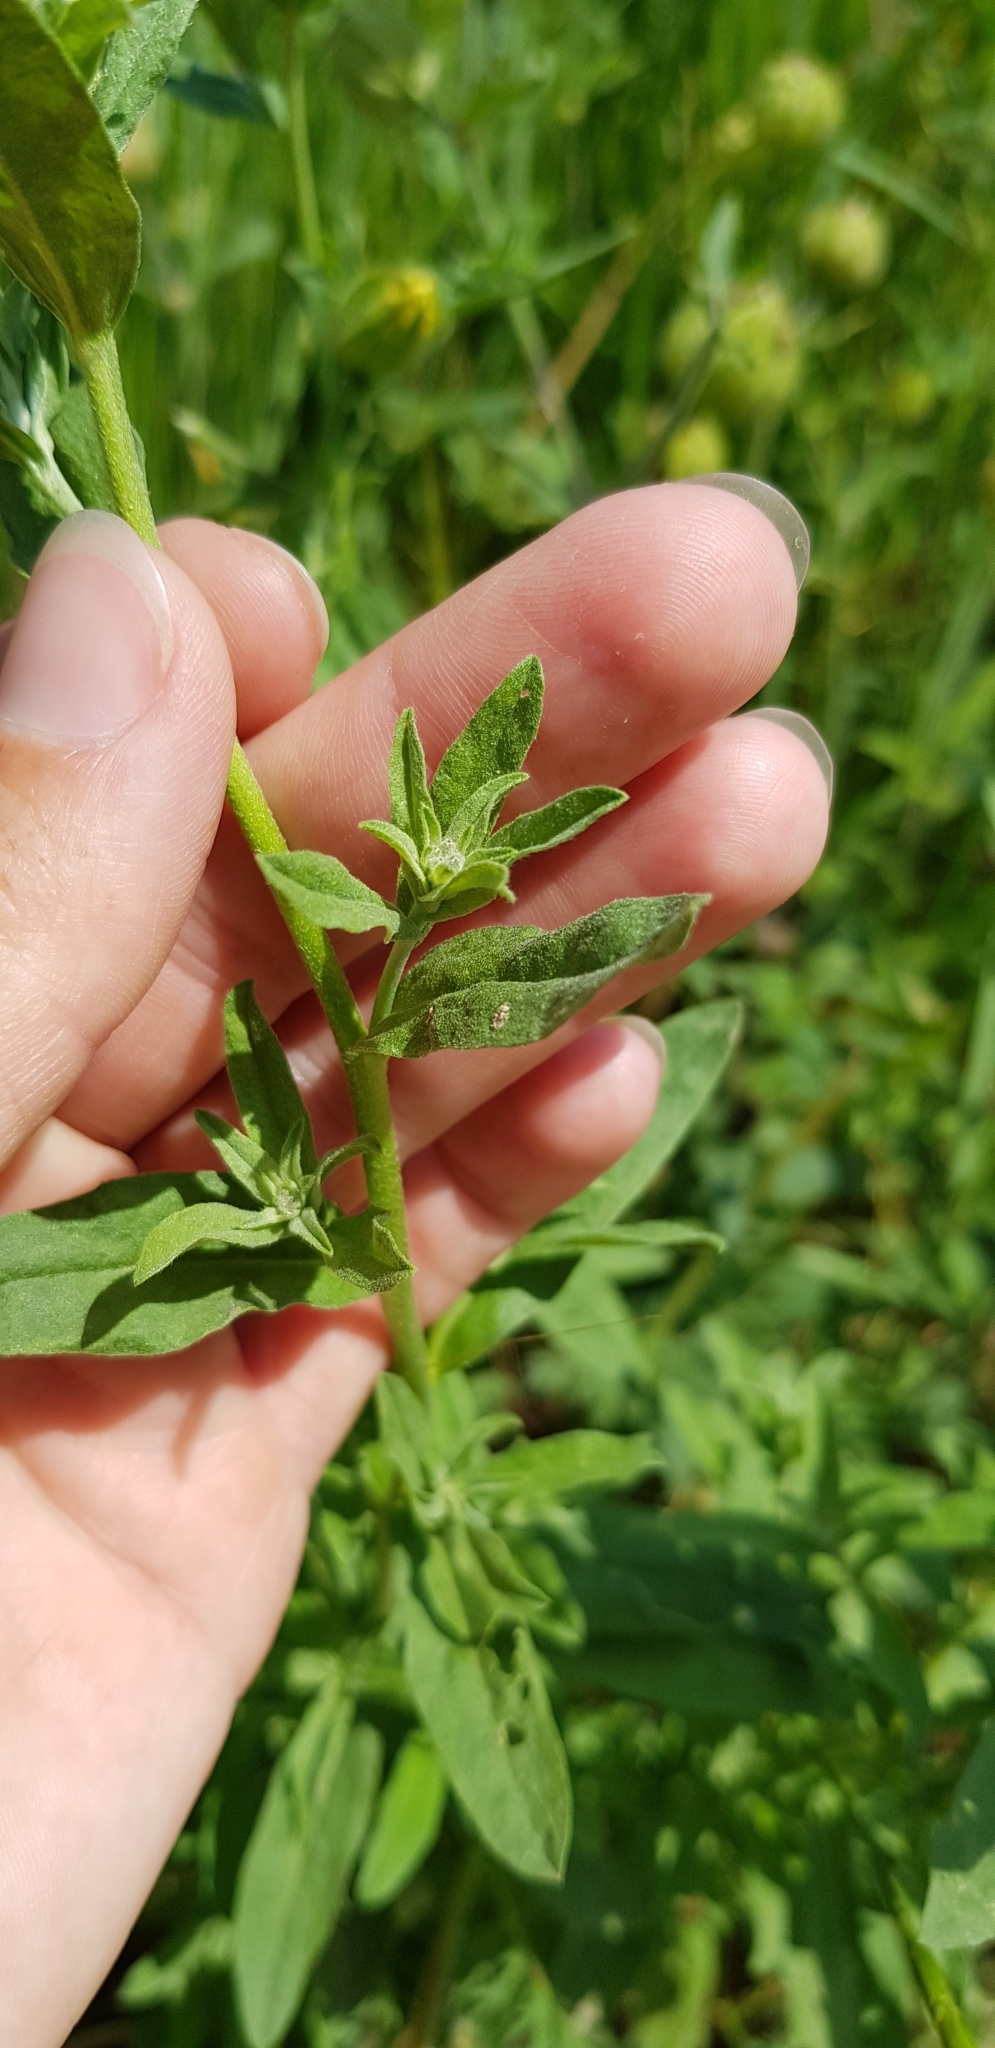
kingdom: Plantae
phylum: Tracheophyta
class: Magnoliopsida
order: Brassicales
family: Brassicaceae
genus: Berteroa
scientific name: Berteroa incana
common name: Hoary alison
